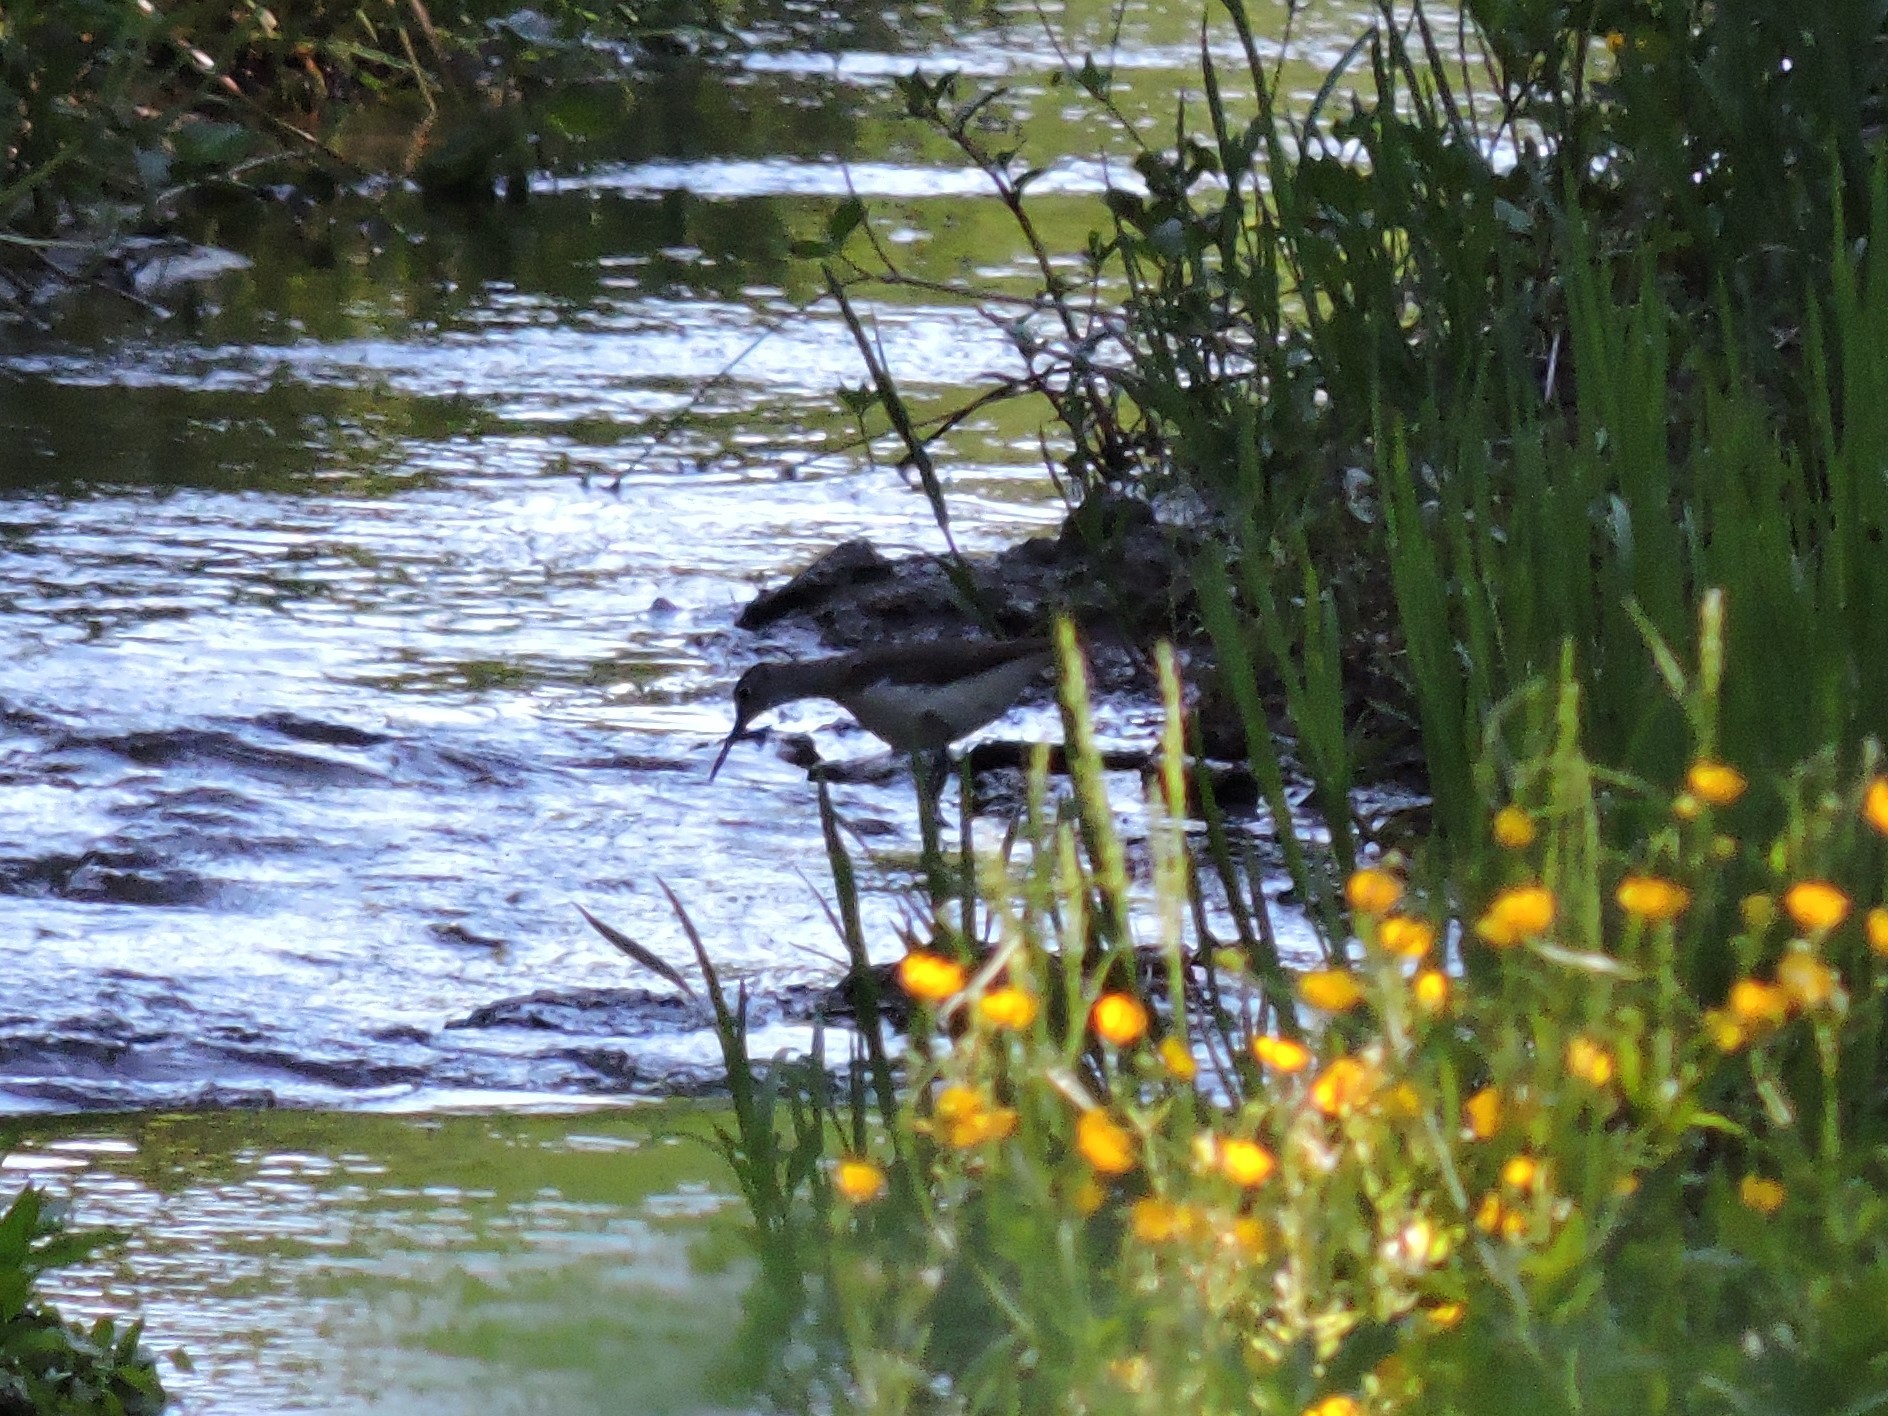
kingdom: Animalia
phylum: Chordata
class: Aves
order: Charadriiformes
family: Scolopacidae
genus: Tringa
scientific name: Tringa ochropus
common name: Green sandpiper
